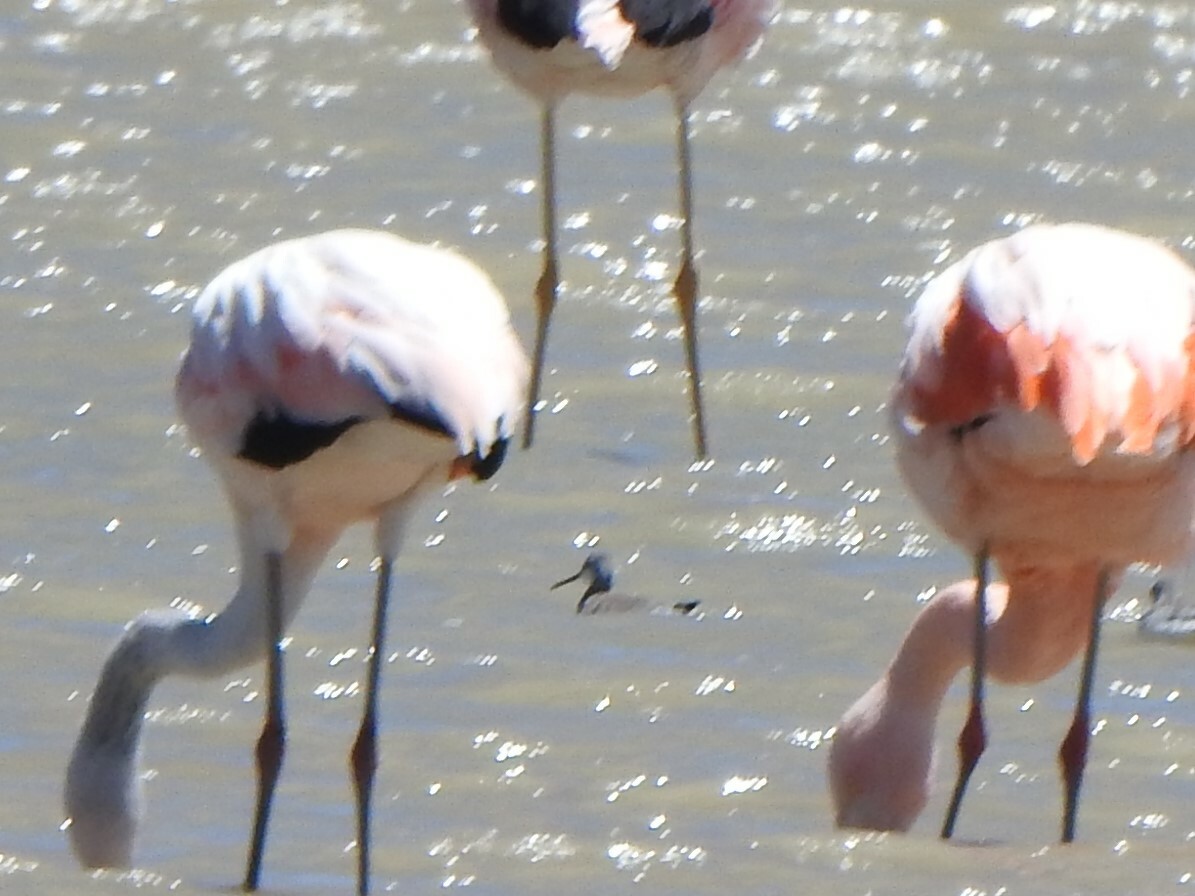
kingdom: Animalia
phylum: Chordata
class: Aves
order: Charadriiformes
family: Scolopacidae
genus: Phalaropus
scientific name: Phalaropus tricolor
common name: Wilson's phalarope
